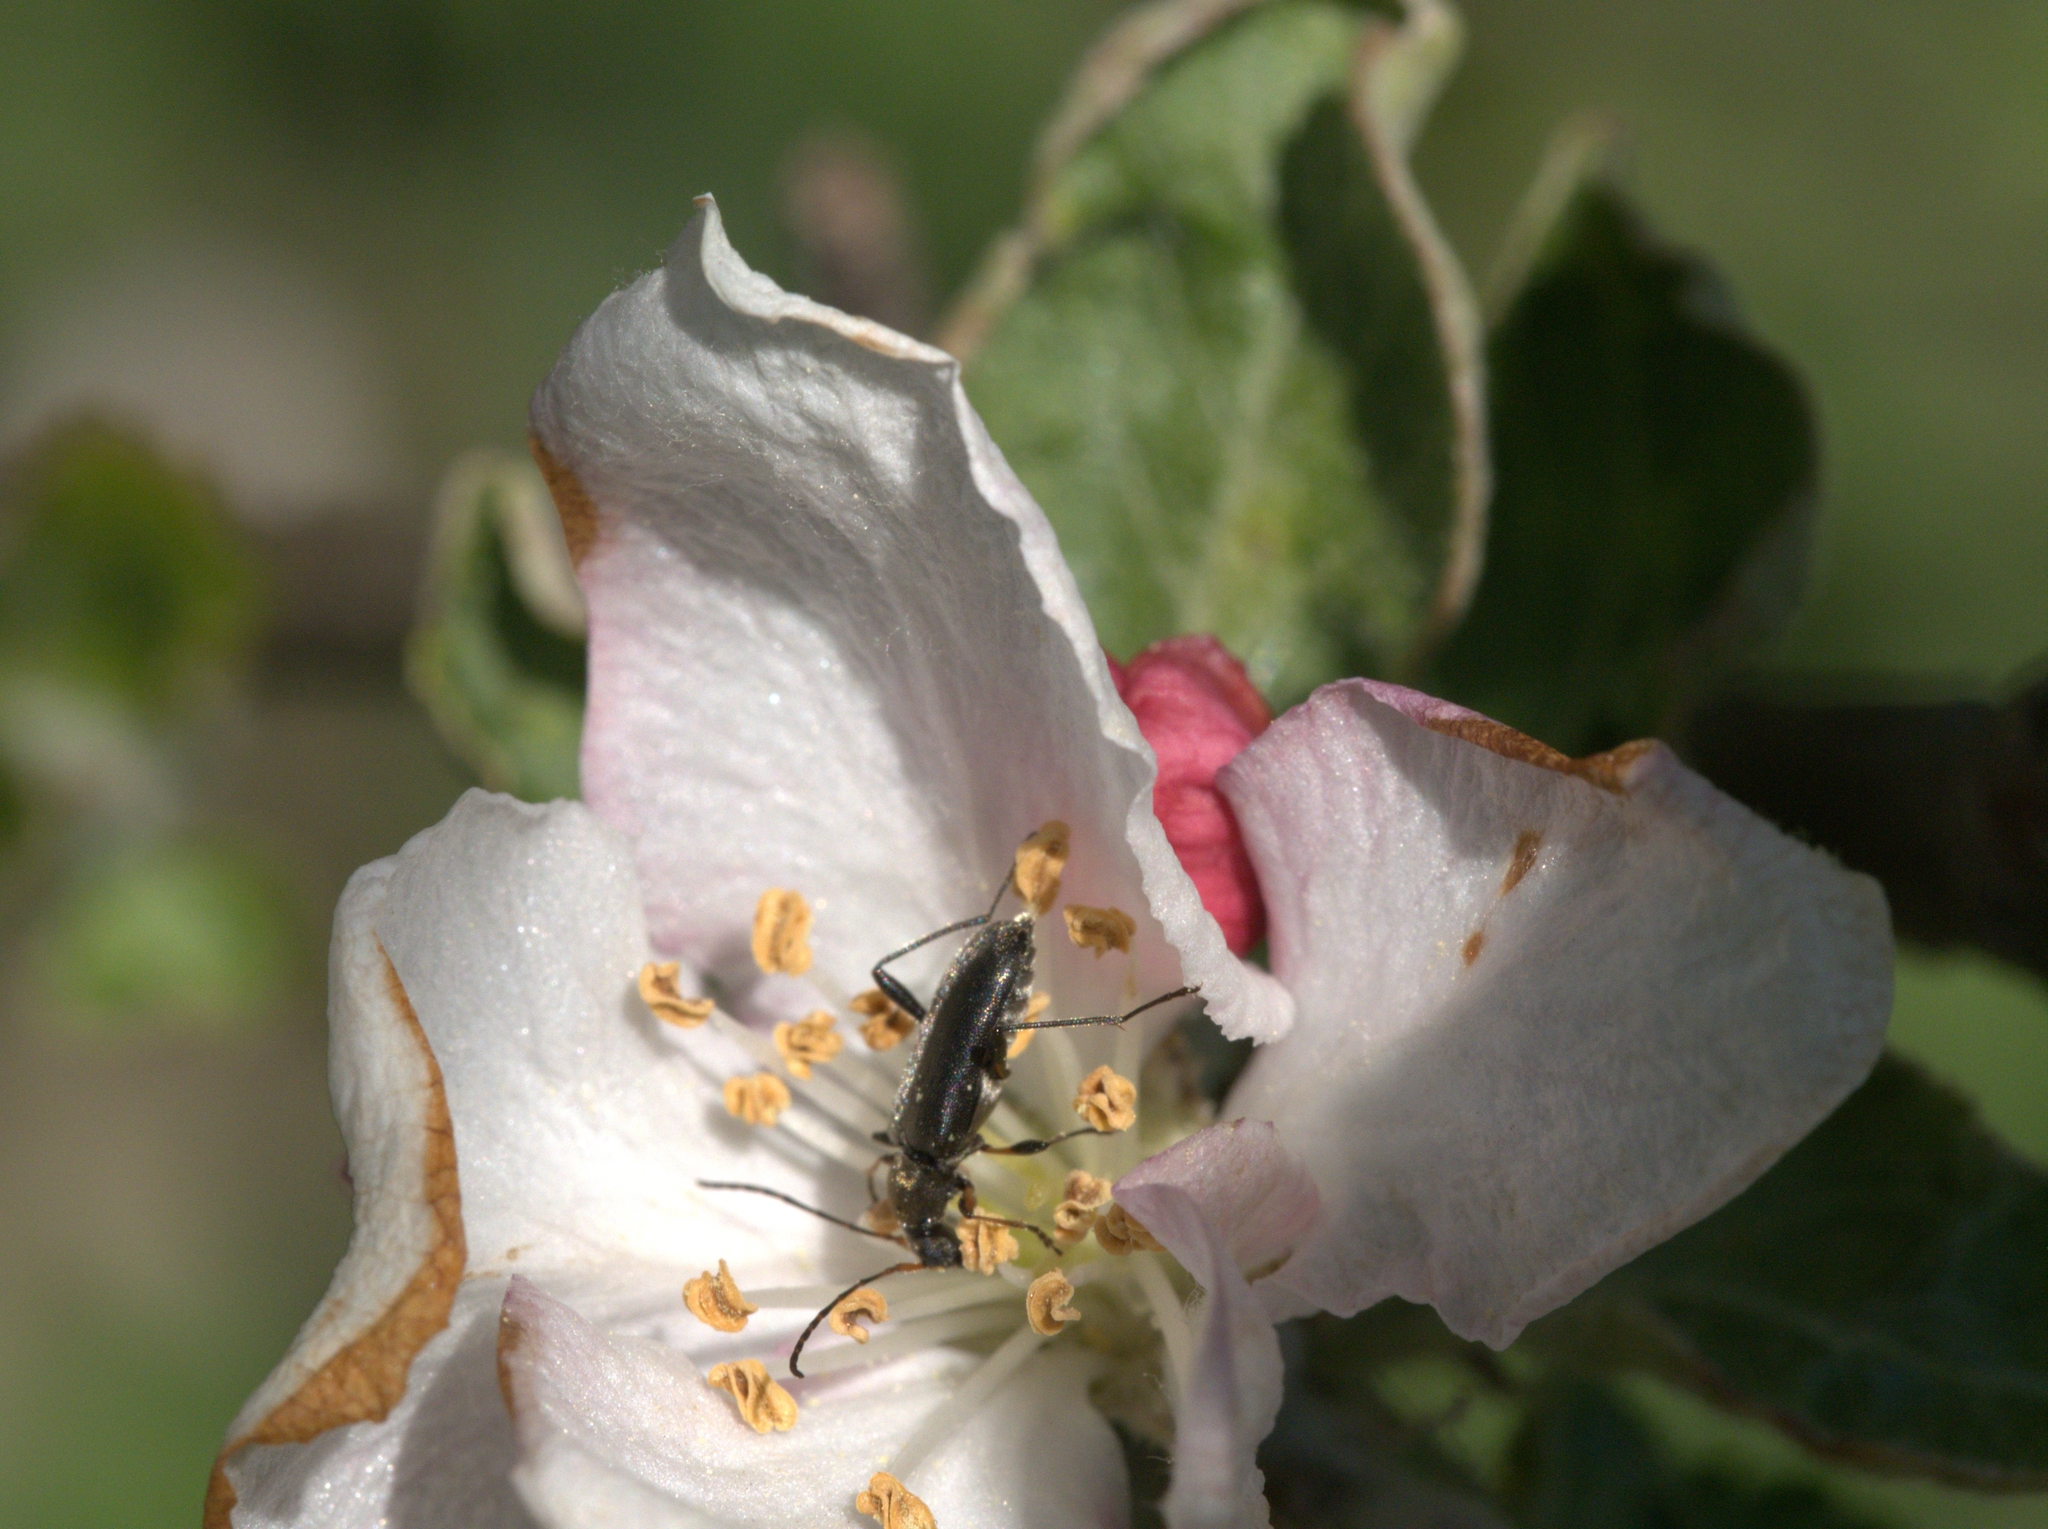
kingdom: Animalia
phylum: Arthropoda
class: Insecta
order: Coleoptera
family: Cerambycidae
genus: Grammoptera
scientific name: Grammoptera ruficornis
